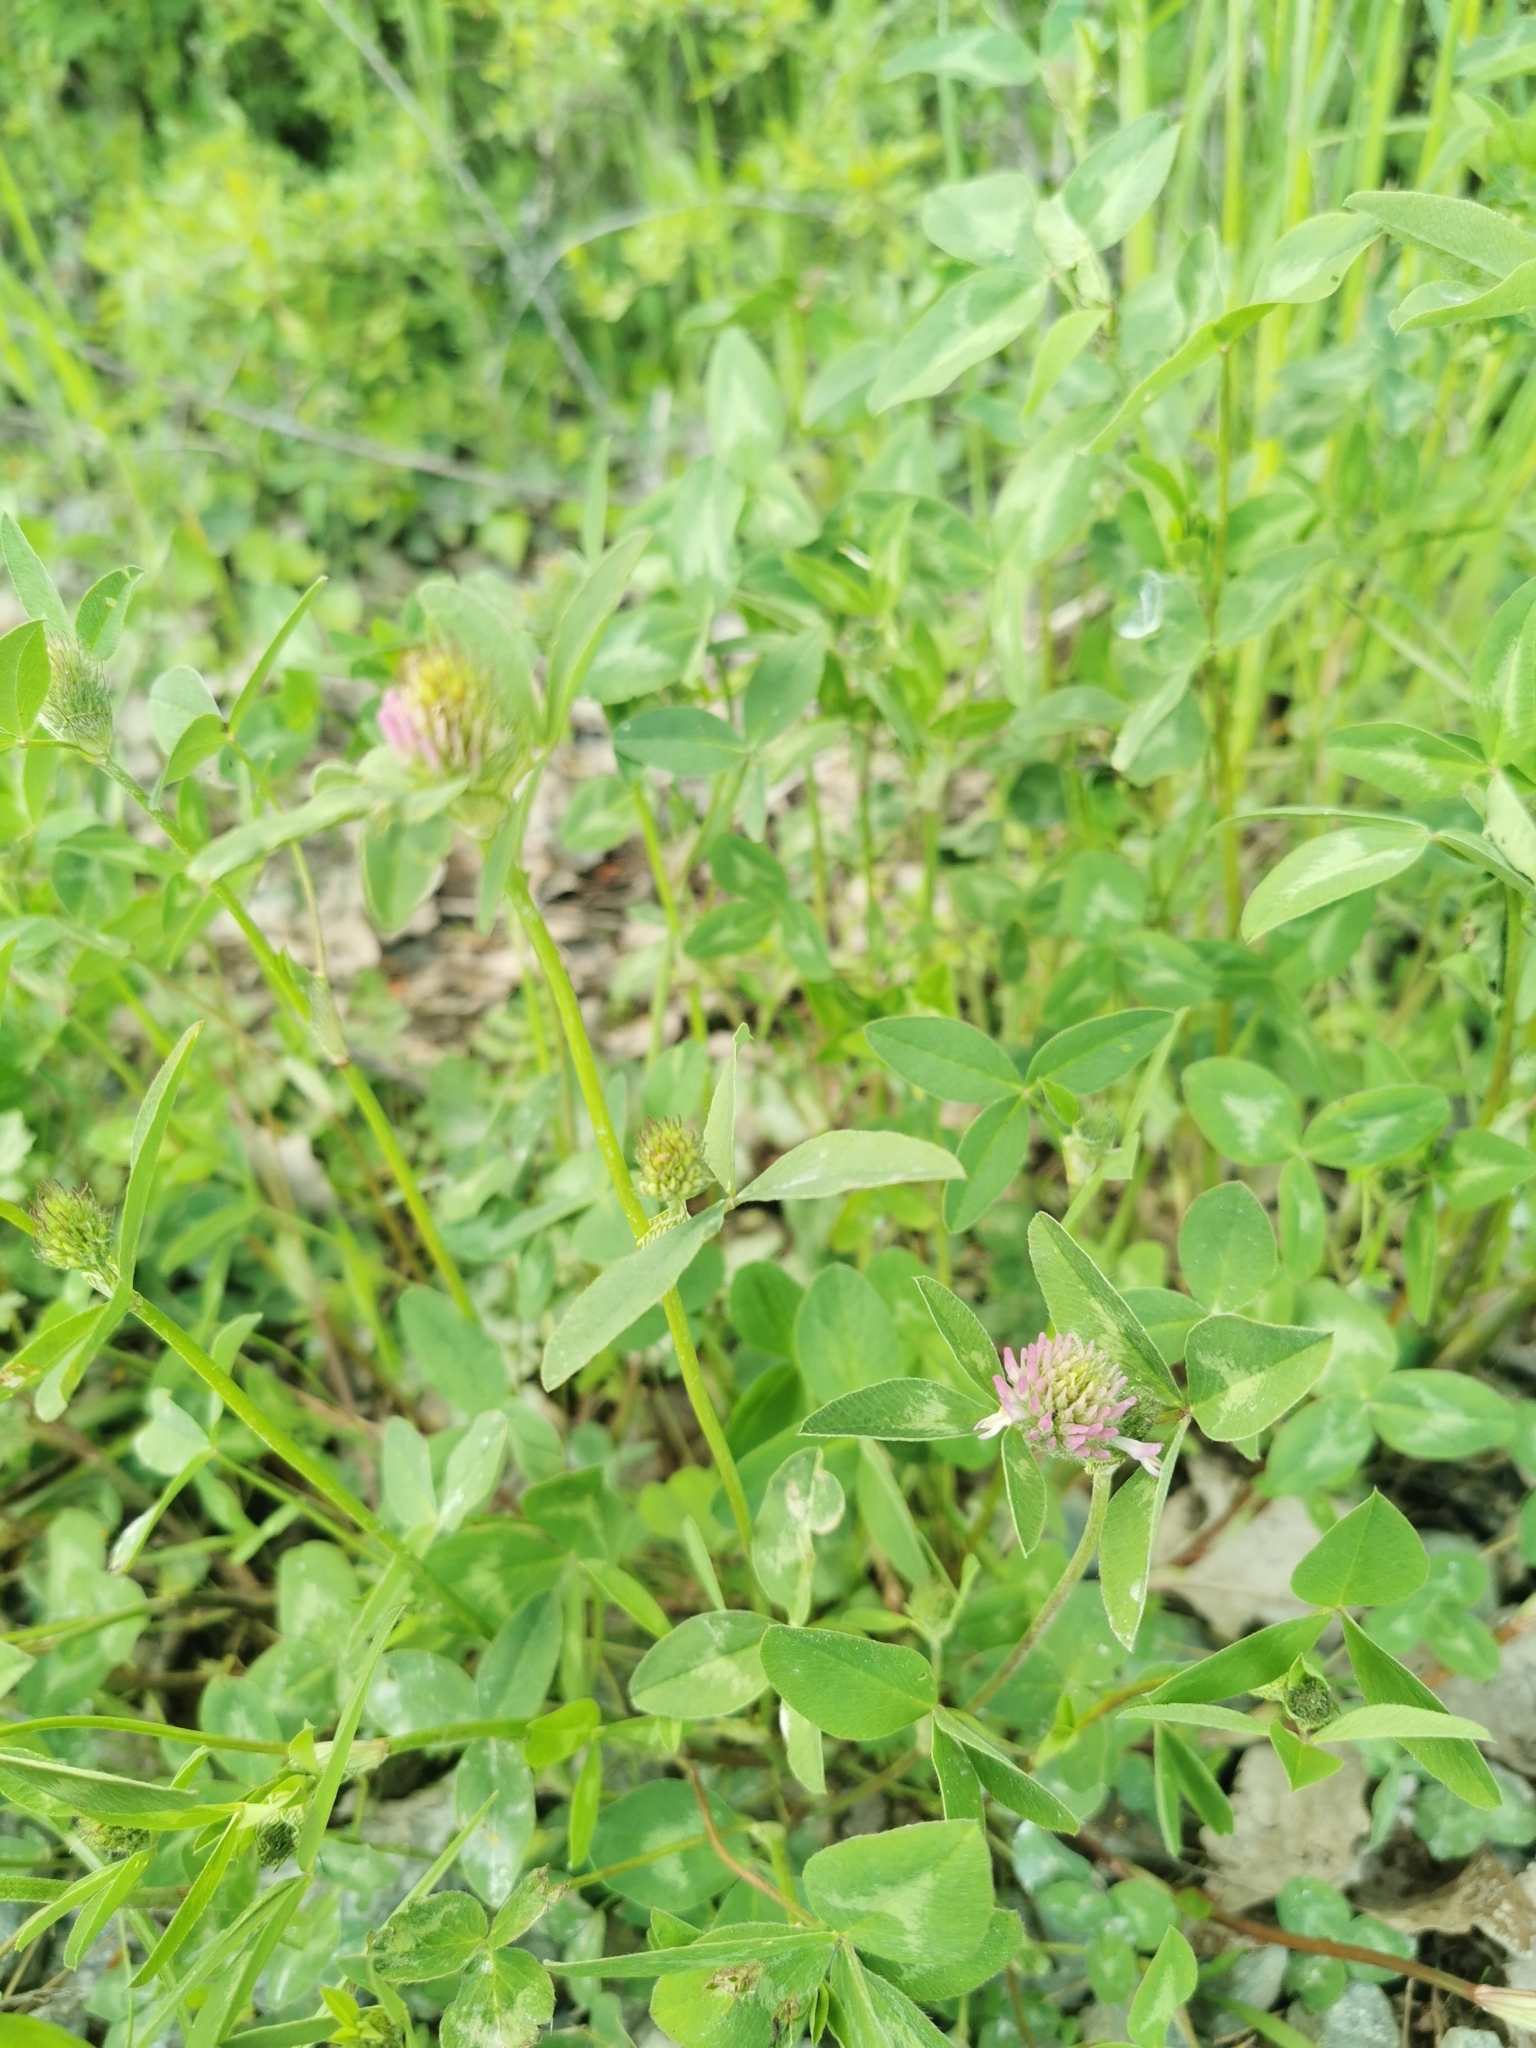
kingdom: Plantae
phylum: Tracheophyta
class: Magnoliopsida
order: Fabales
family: Fabaceae
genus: Trifolium
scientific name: Trifolium pratense
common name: Red clover
